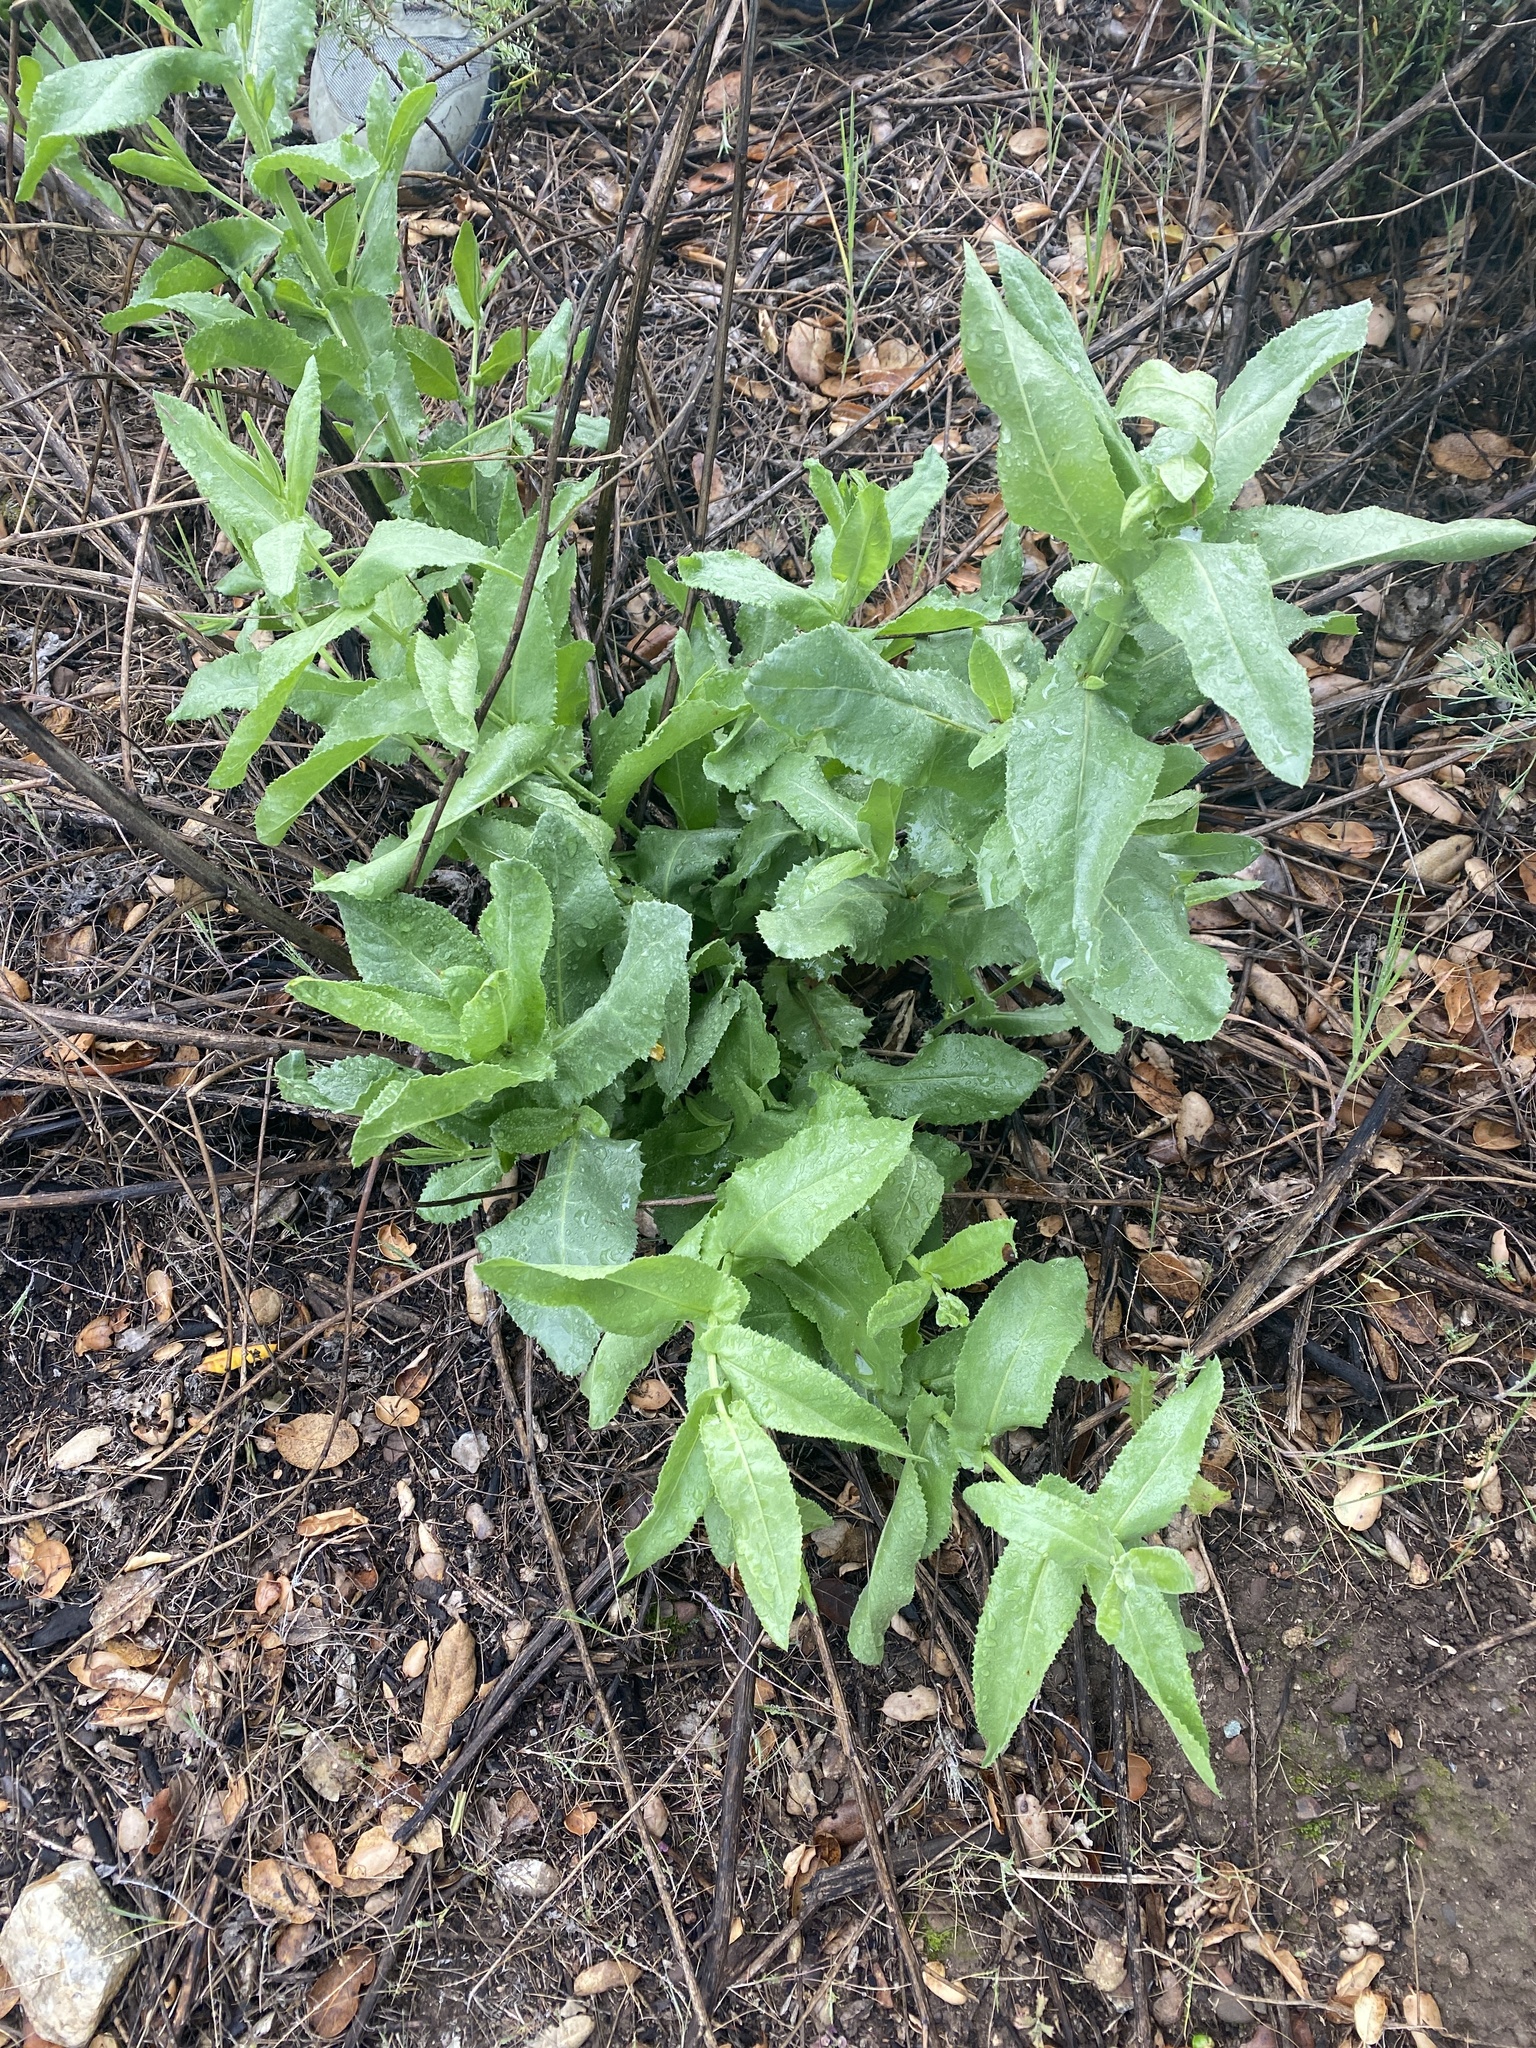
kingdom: Plantae
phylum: Tracheophyta
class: Magnoliopsida
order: Asterales
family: Asteraceae
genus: Acourtia
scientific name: Acourtia microcephala
